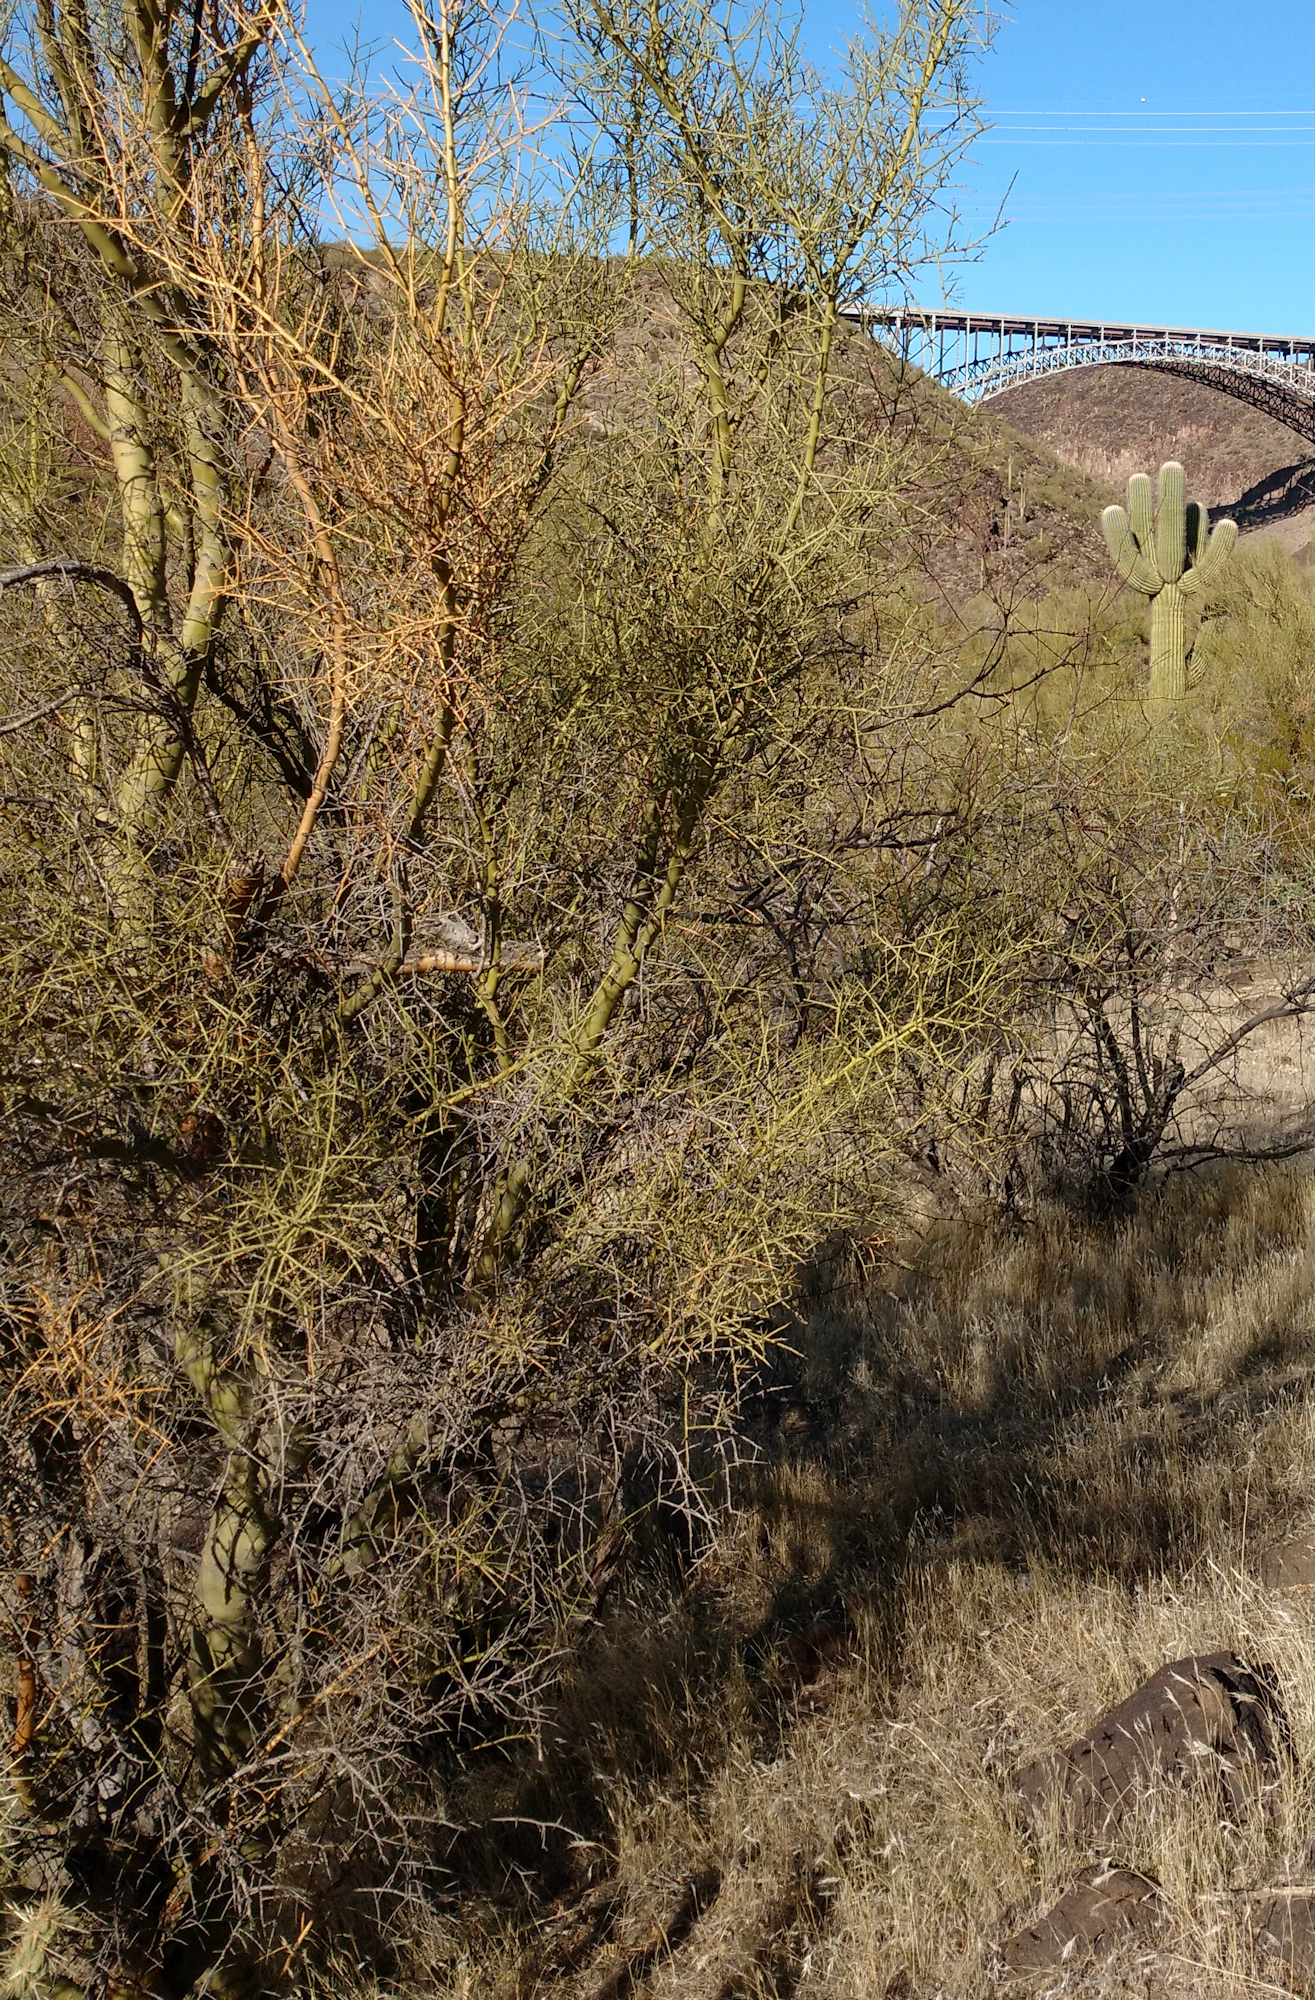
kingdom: Plantae
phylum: Tracheophyta
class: Magnoliopsida
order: Fabales
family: Fabaceae
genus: Parkinsonia
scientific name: Parkinsonia microphylla
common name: Yellow paloverde
